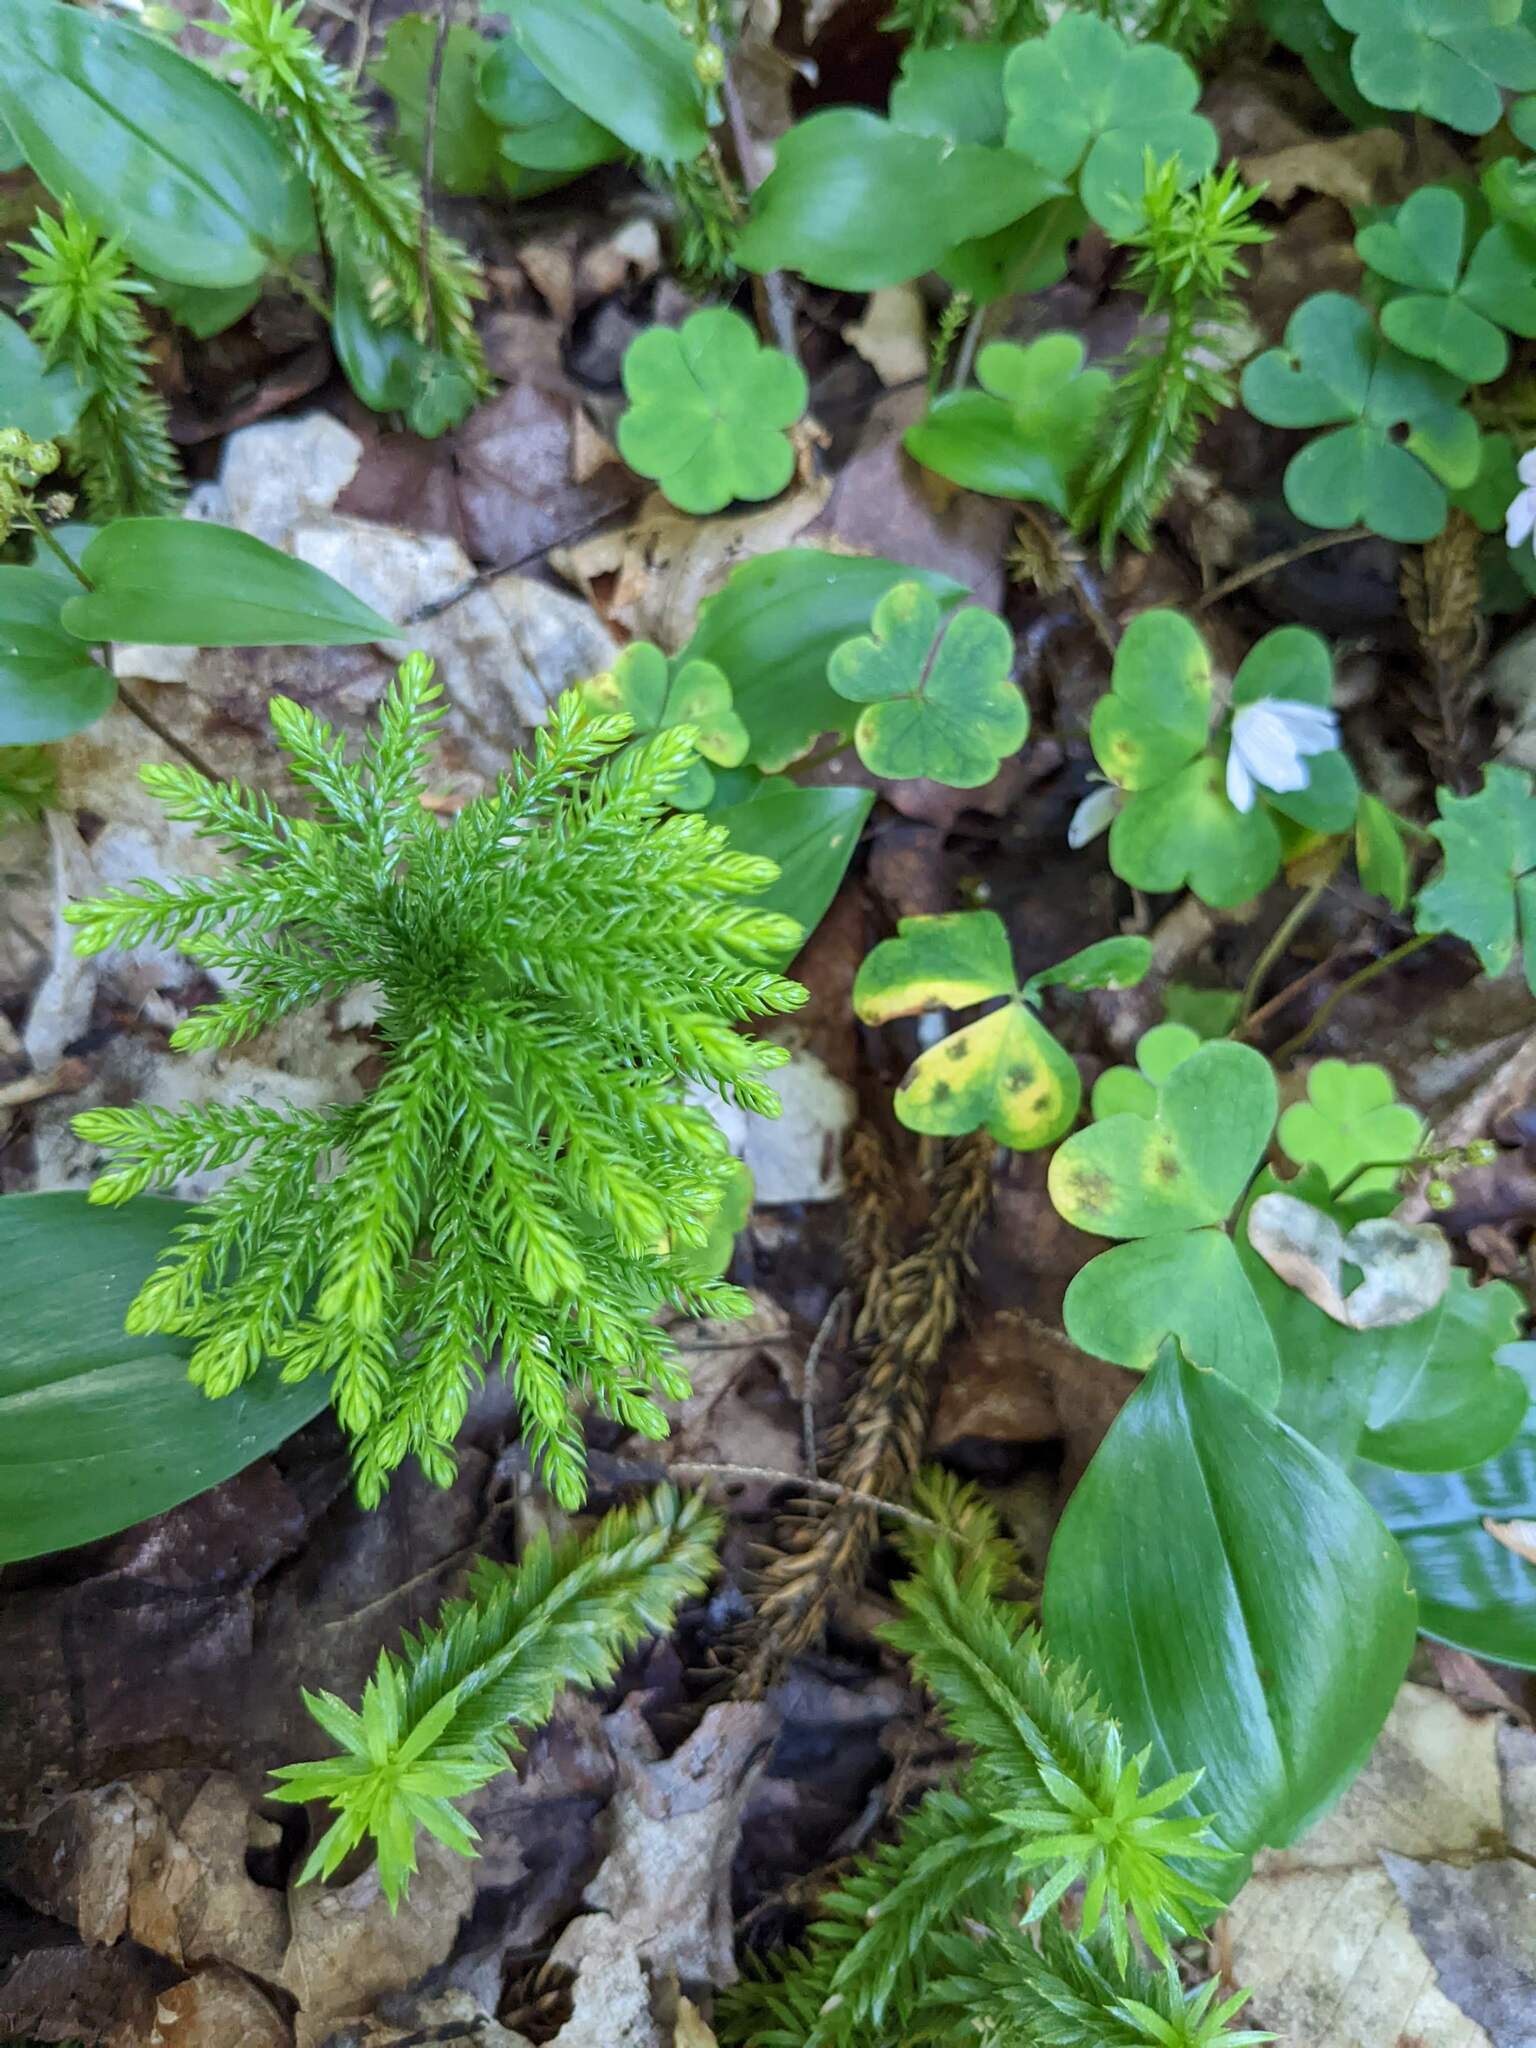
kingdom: Plantae
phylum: Tracheophyta
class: Liliopsida
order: Asparagales
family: Asparagaceae
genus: Maianthemum
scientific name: Maianthemum canadense
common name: False lily-of-the-valley
